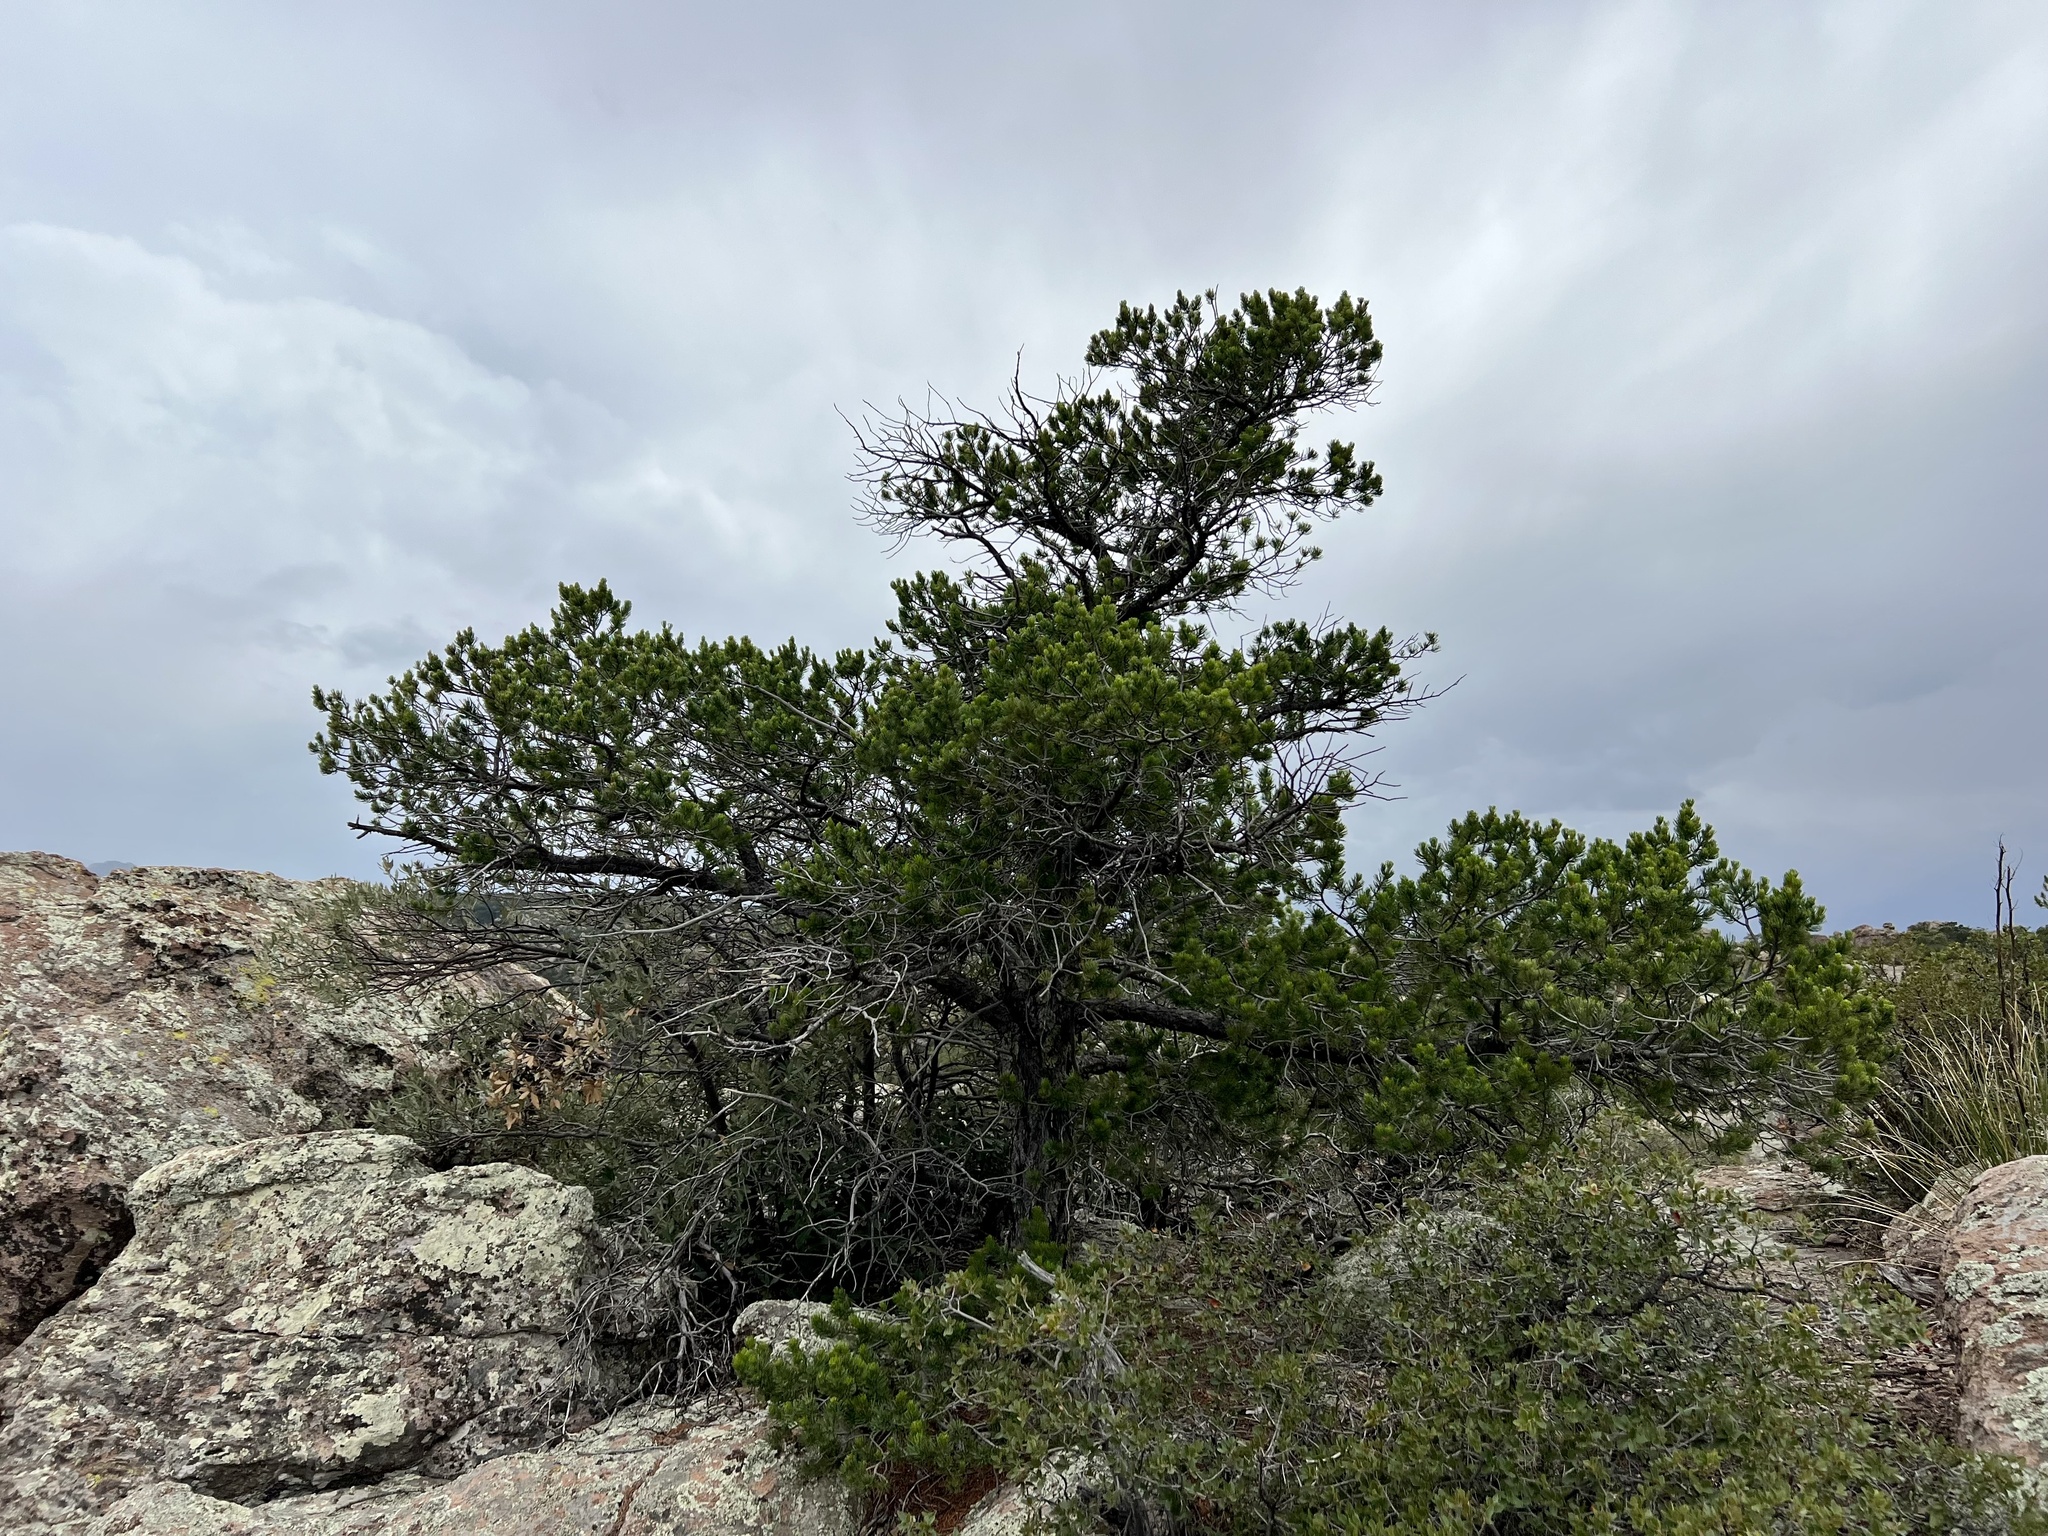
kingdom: Plantae
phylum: Tracheophyta
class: Pinopsida
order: Pinales
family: Pinaceae
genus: Pinus
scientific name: Pinus cembroides
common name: Mexican nut pine
